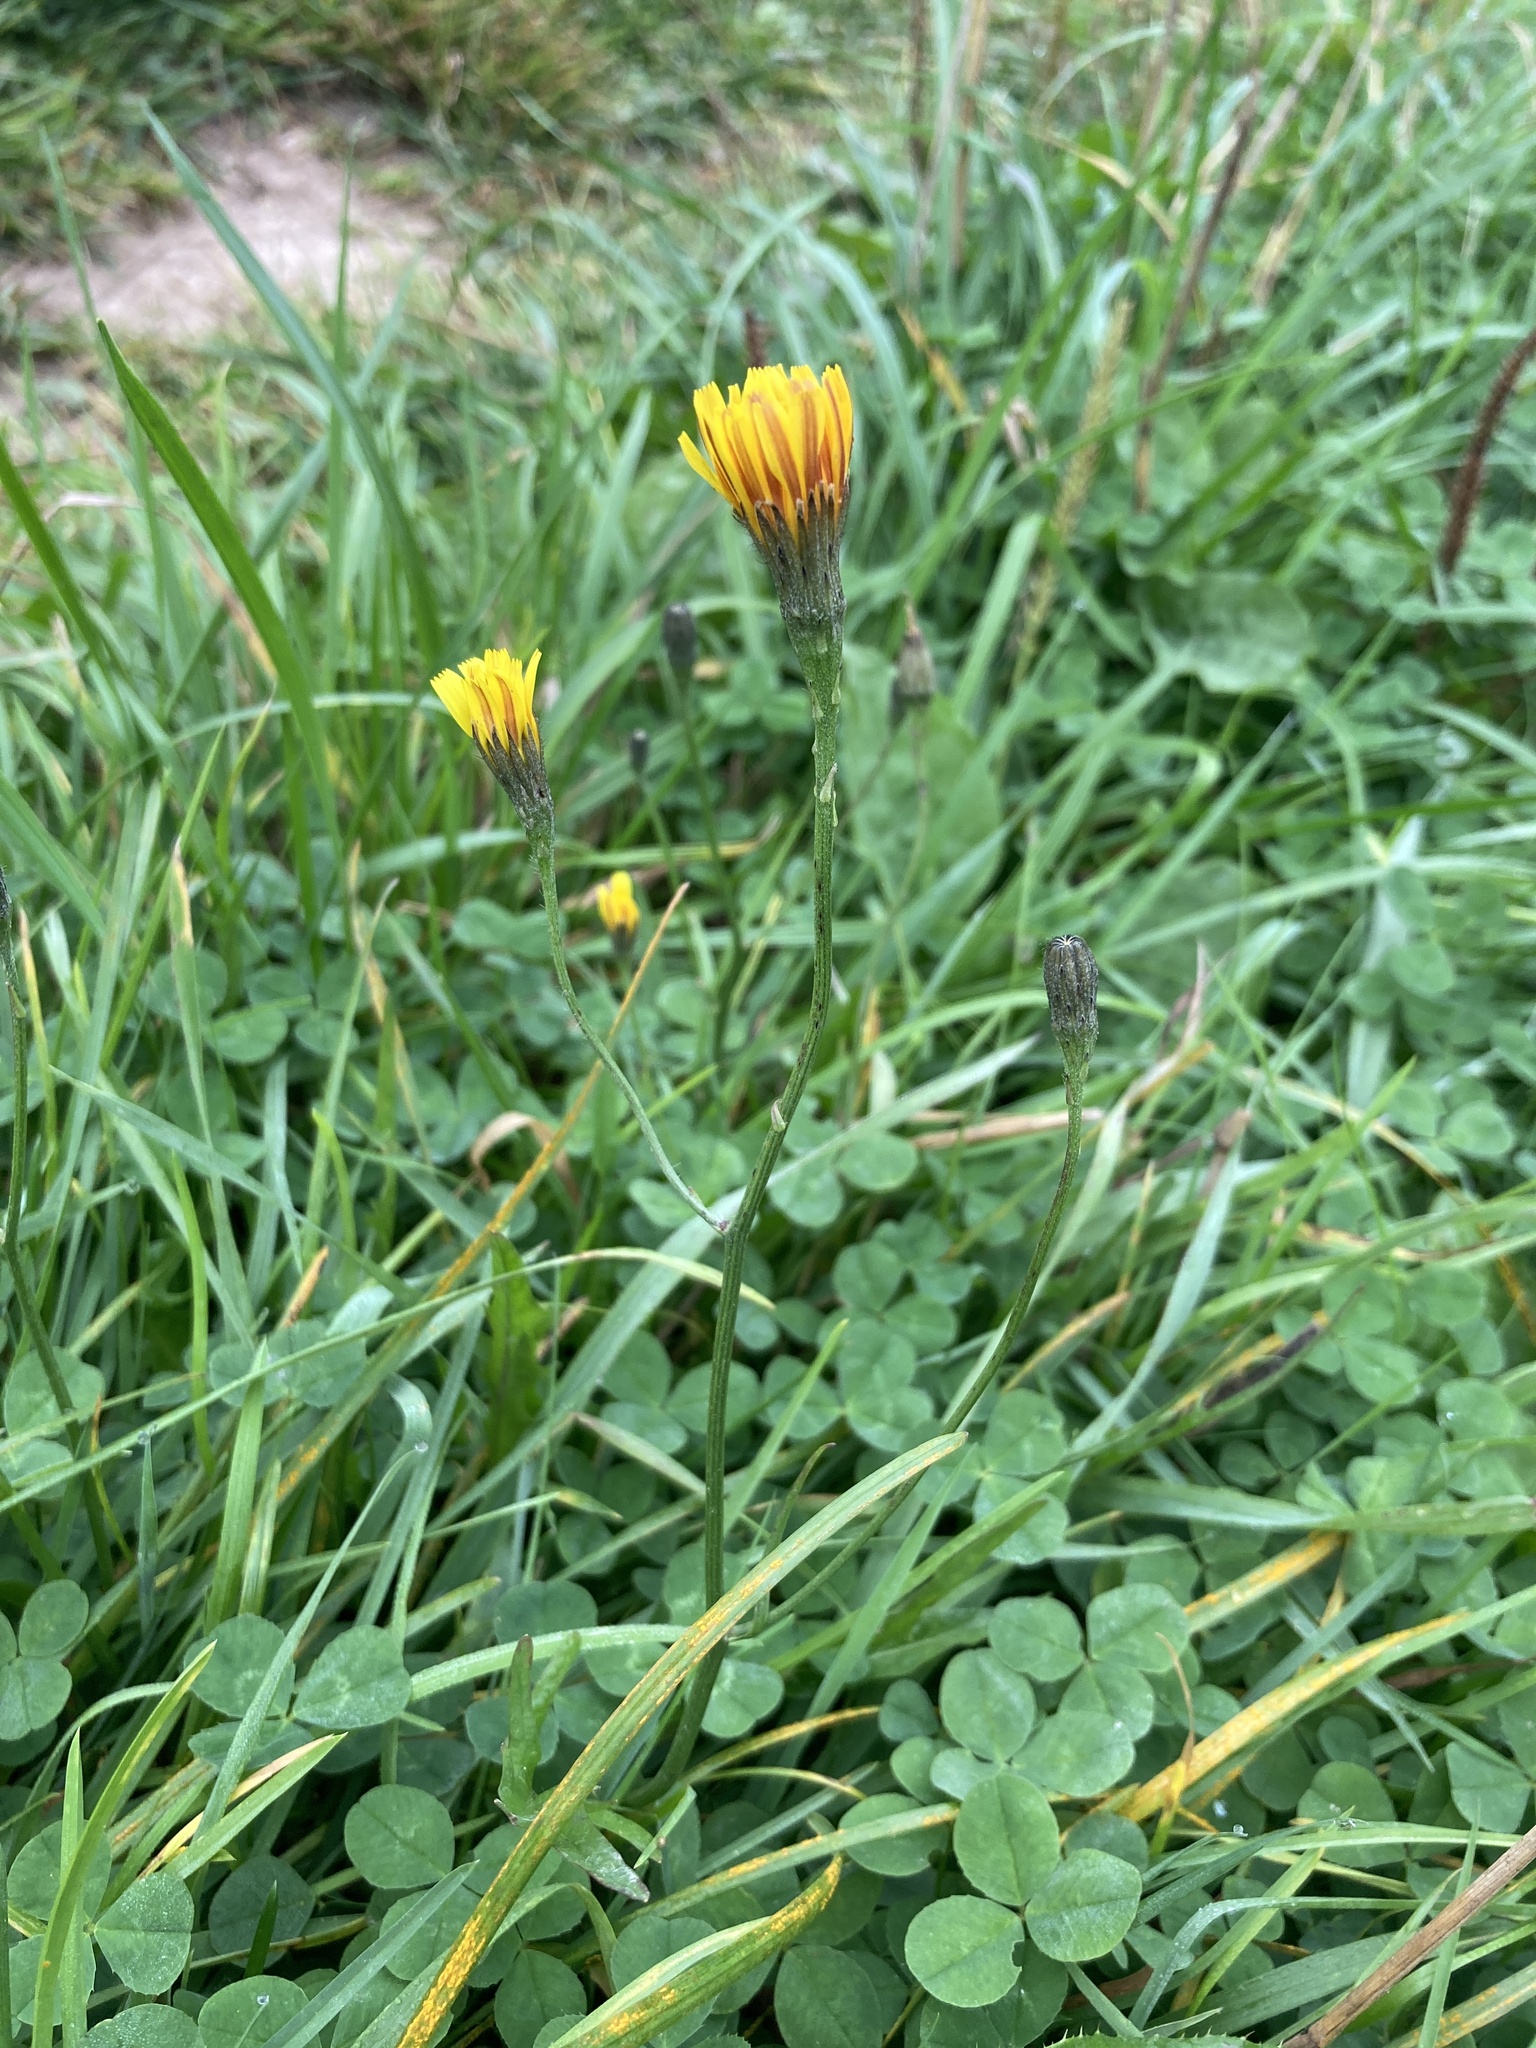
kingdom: Plantae
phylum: Tracheophyta
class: Magnoliopsida
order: Asterales
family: Asteraceae
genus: Scorzoneroides
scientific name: Scorzoneroides autumnalis
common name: Autumn hawkbit
